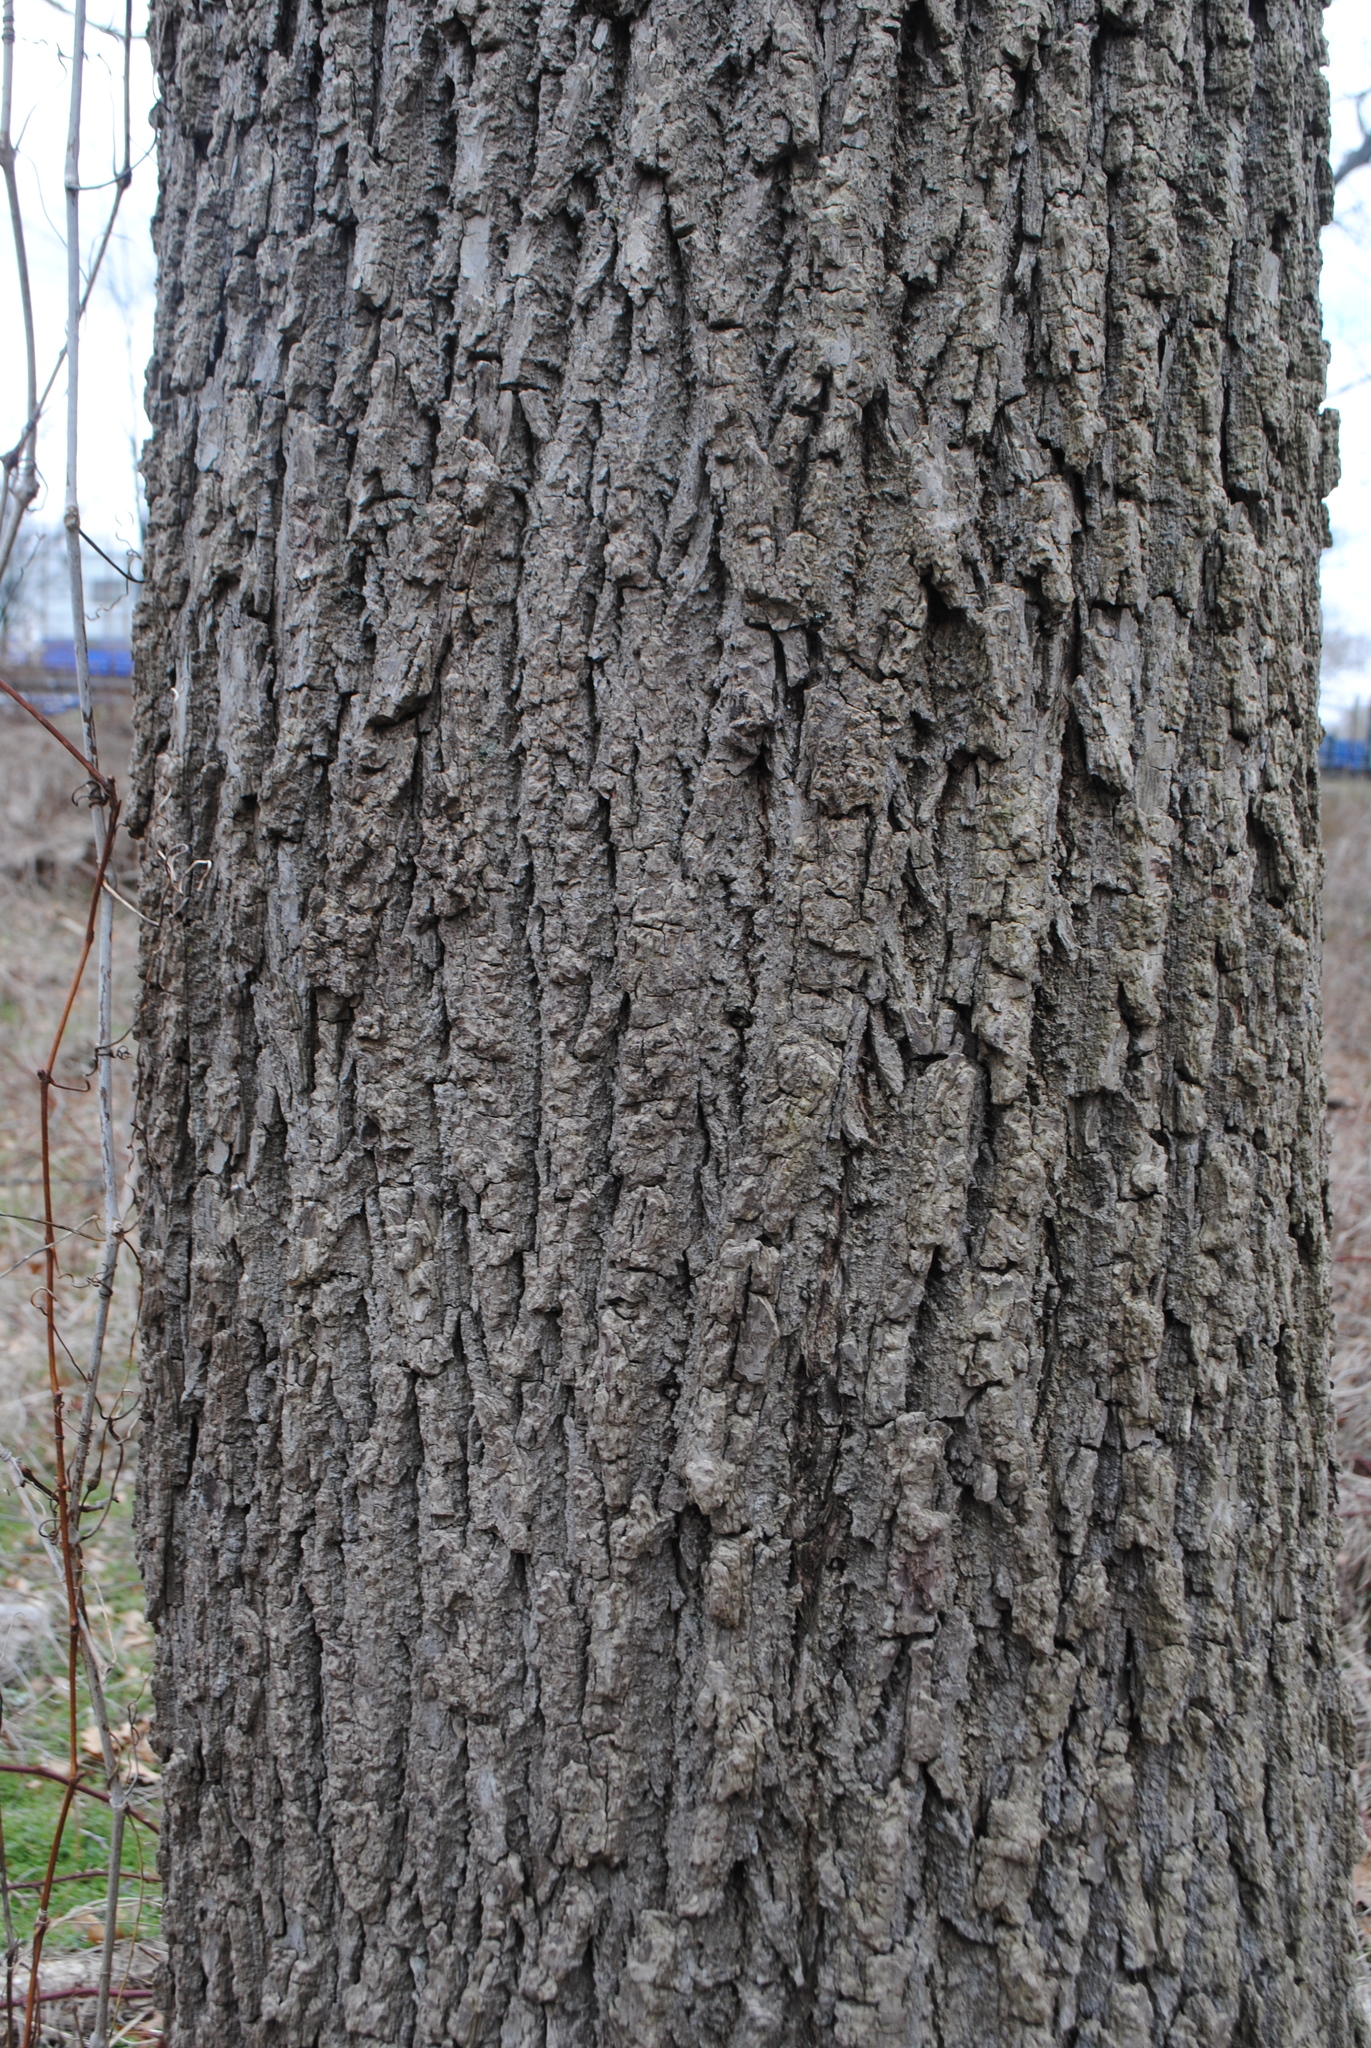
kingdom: Plantae
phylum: Tracheophyta
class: Magnoliopsida
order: Fagales
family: Juglandaceae
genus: Juglans
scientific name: Juglans nigra
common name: Black walnut
